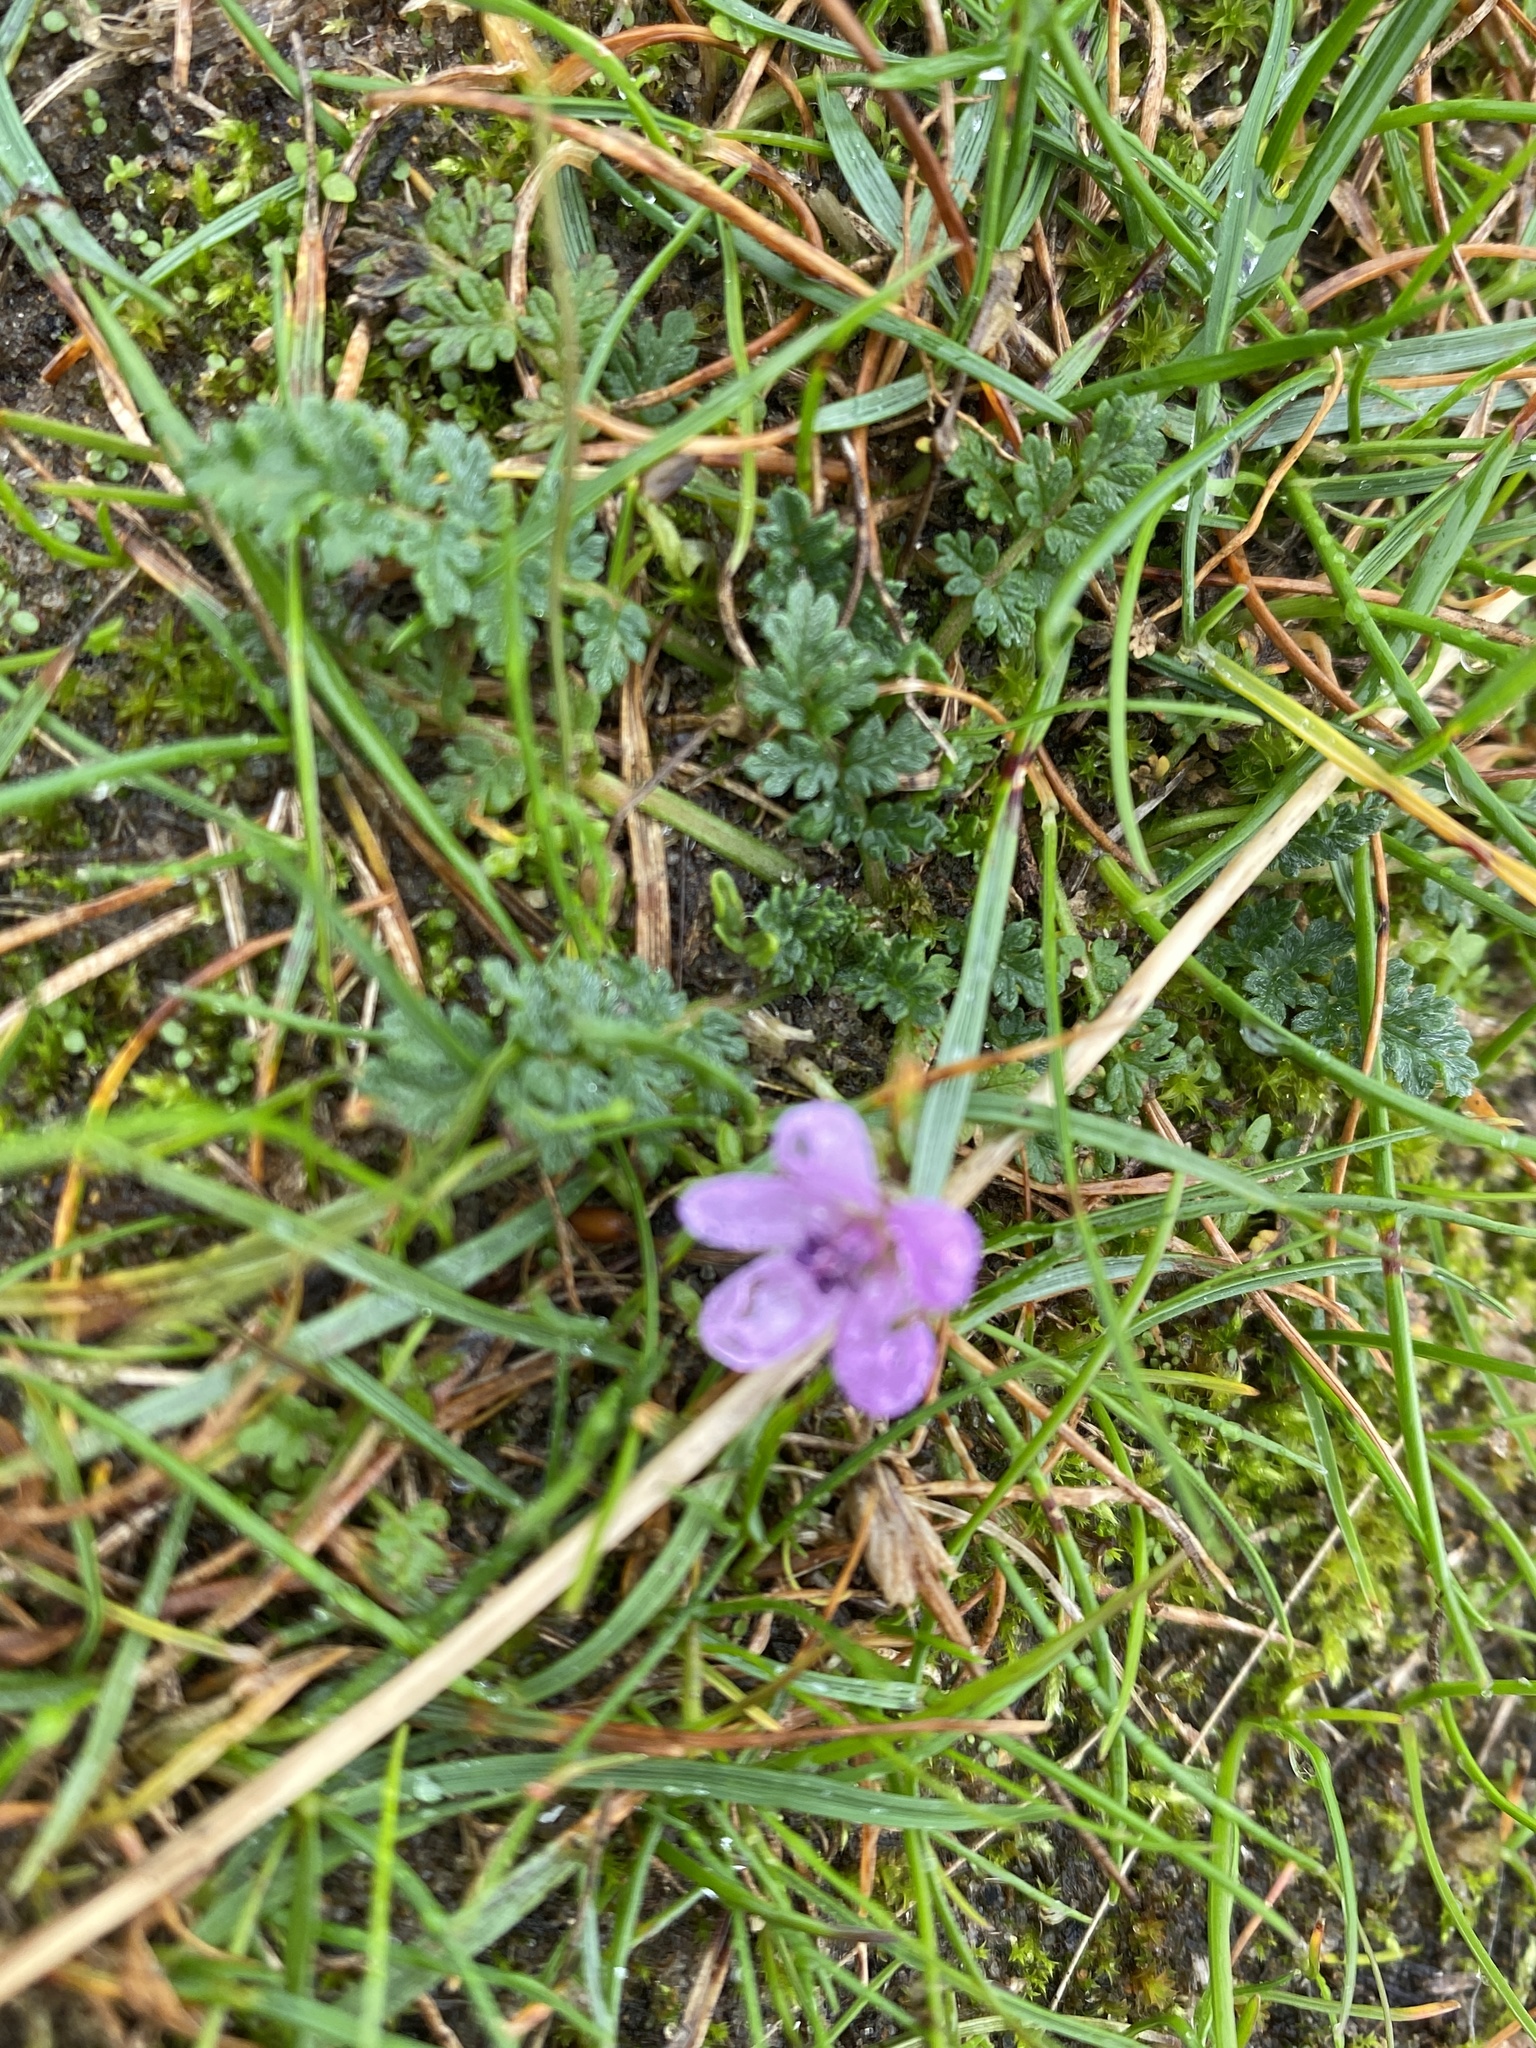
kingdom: Plantae
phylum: Tracheophyta
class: Magnoliopsida
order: Geraniales
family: Geraniaceae
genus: Erodium
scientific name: Erodium cicutarium
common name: Common stork's-bill
